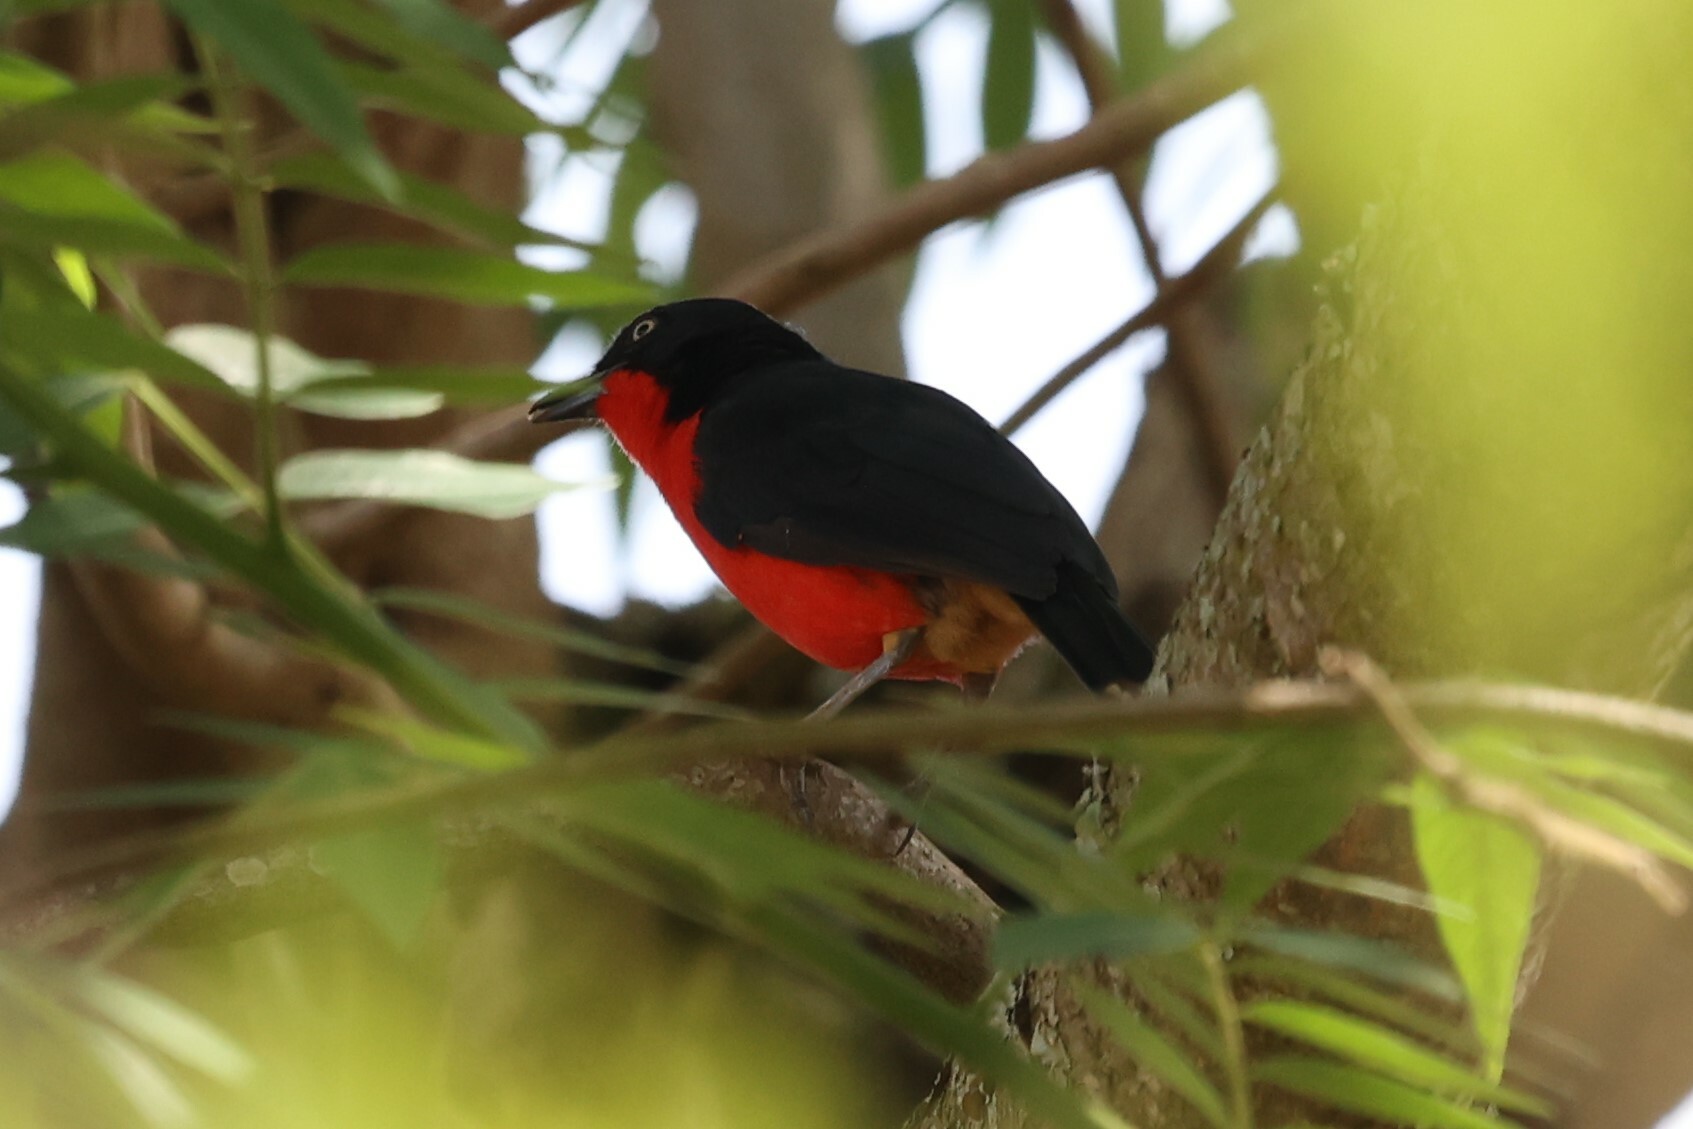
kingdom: Animalia
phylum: Chordata
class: Aves
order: Passeriformes
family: Malaconotidae
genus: Laniarius
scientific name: Laniarius erythrogaster
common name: Black-headed gonolek
